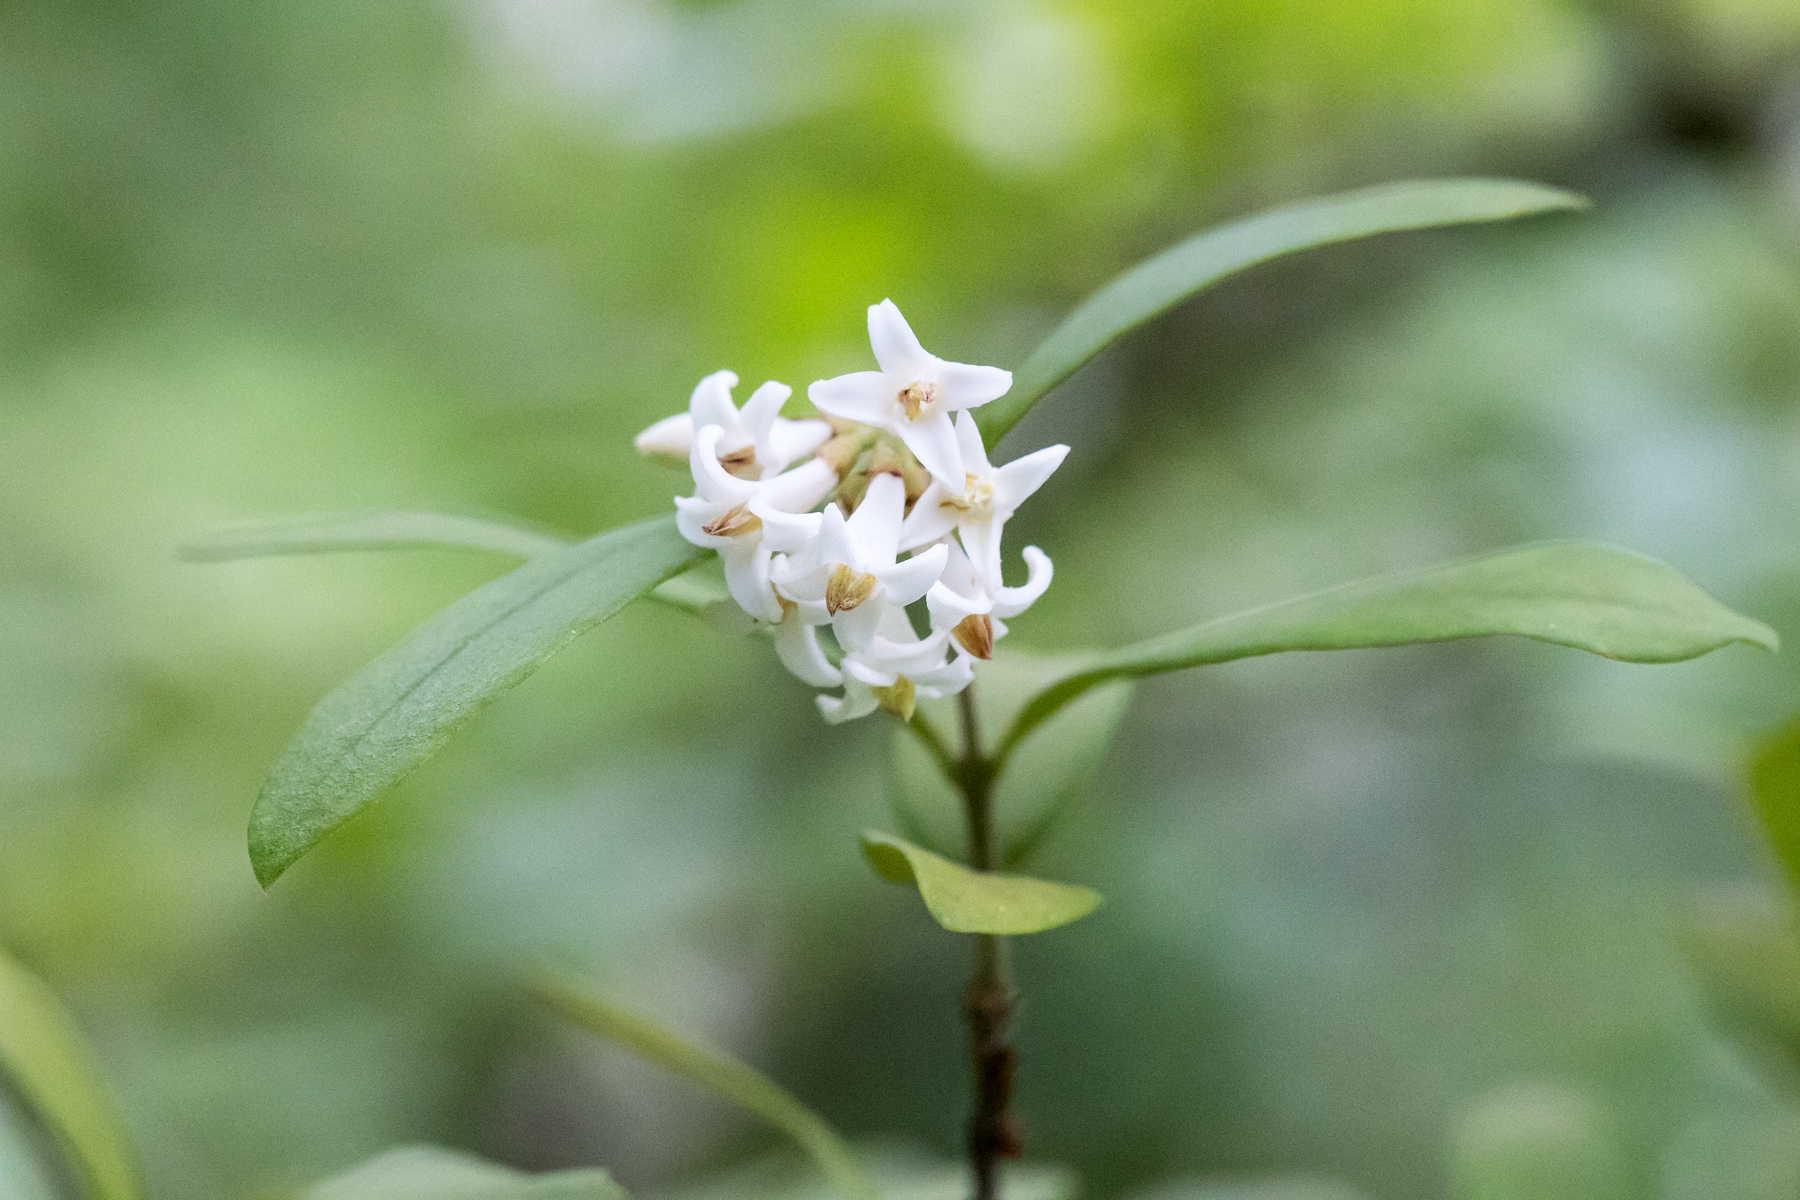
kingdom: Plantae
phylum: Tracheophyta
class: Magnoliopsida
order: Lamiales
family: Oleaceae
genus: Ligustrum
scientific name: Ligustrum obtusifolium
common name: Border privet
